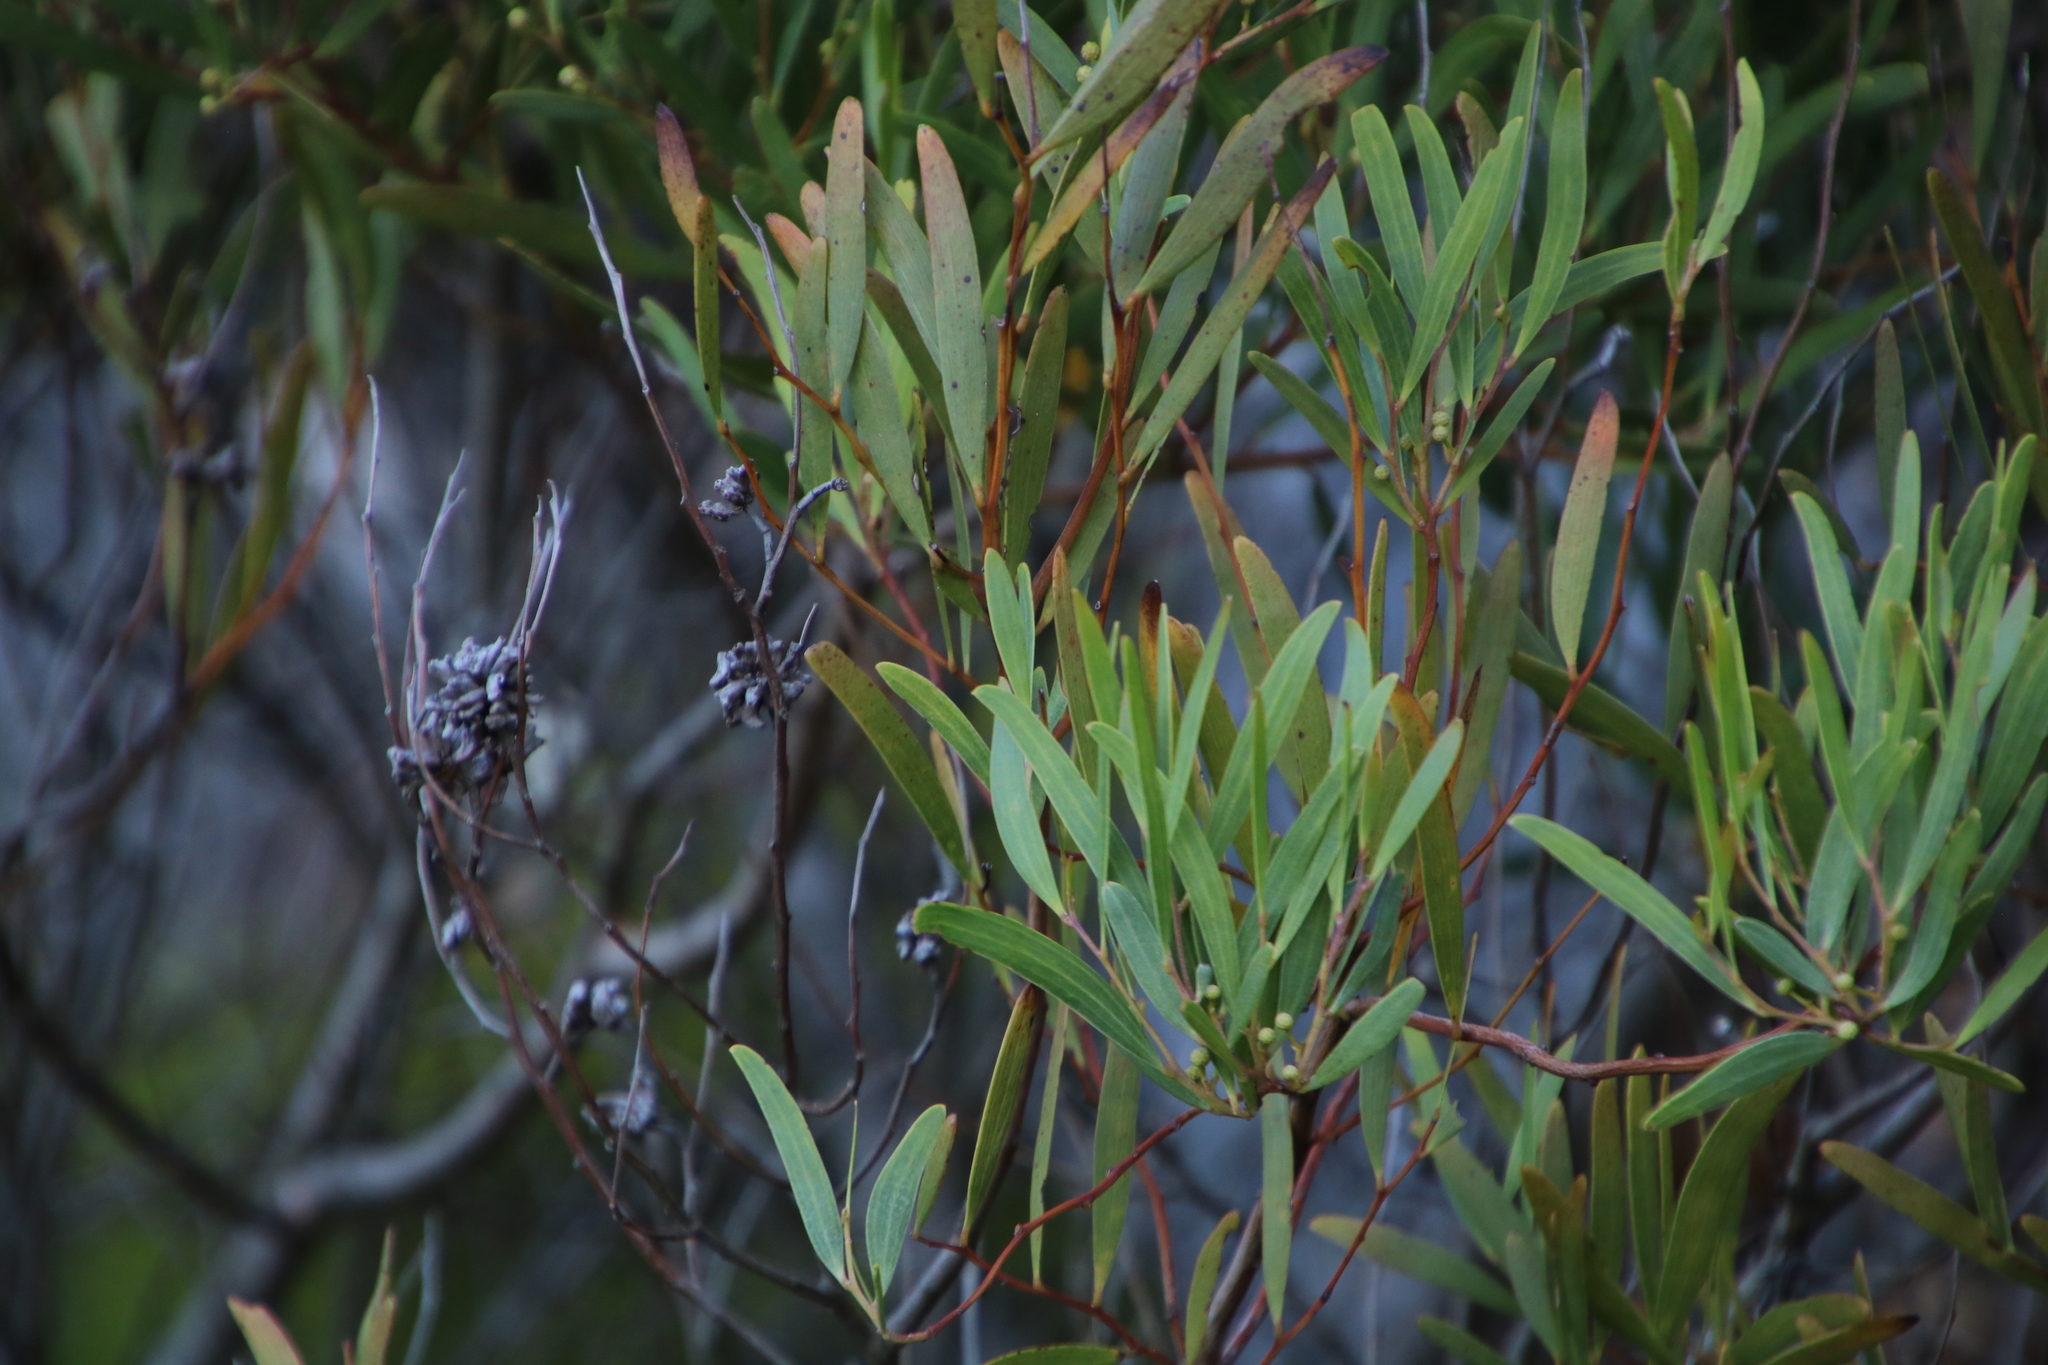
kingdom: Animalia
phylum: Arthropoda
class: Insecta
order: Diptera
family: Cecidomyiidae
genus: Dasineura
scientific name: Dasineura dielsi
